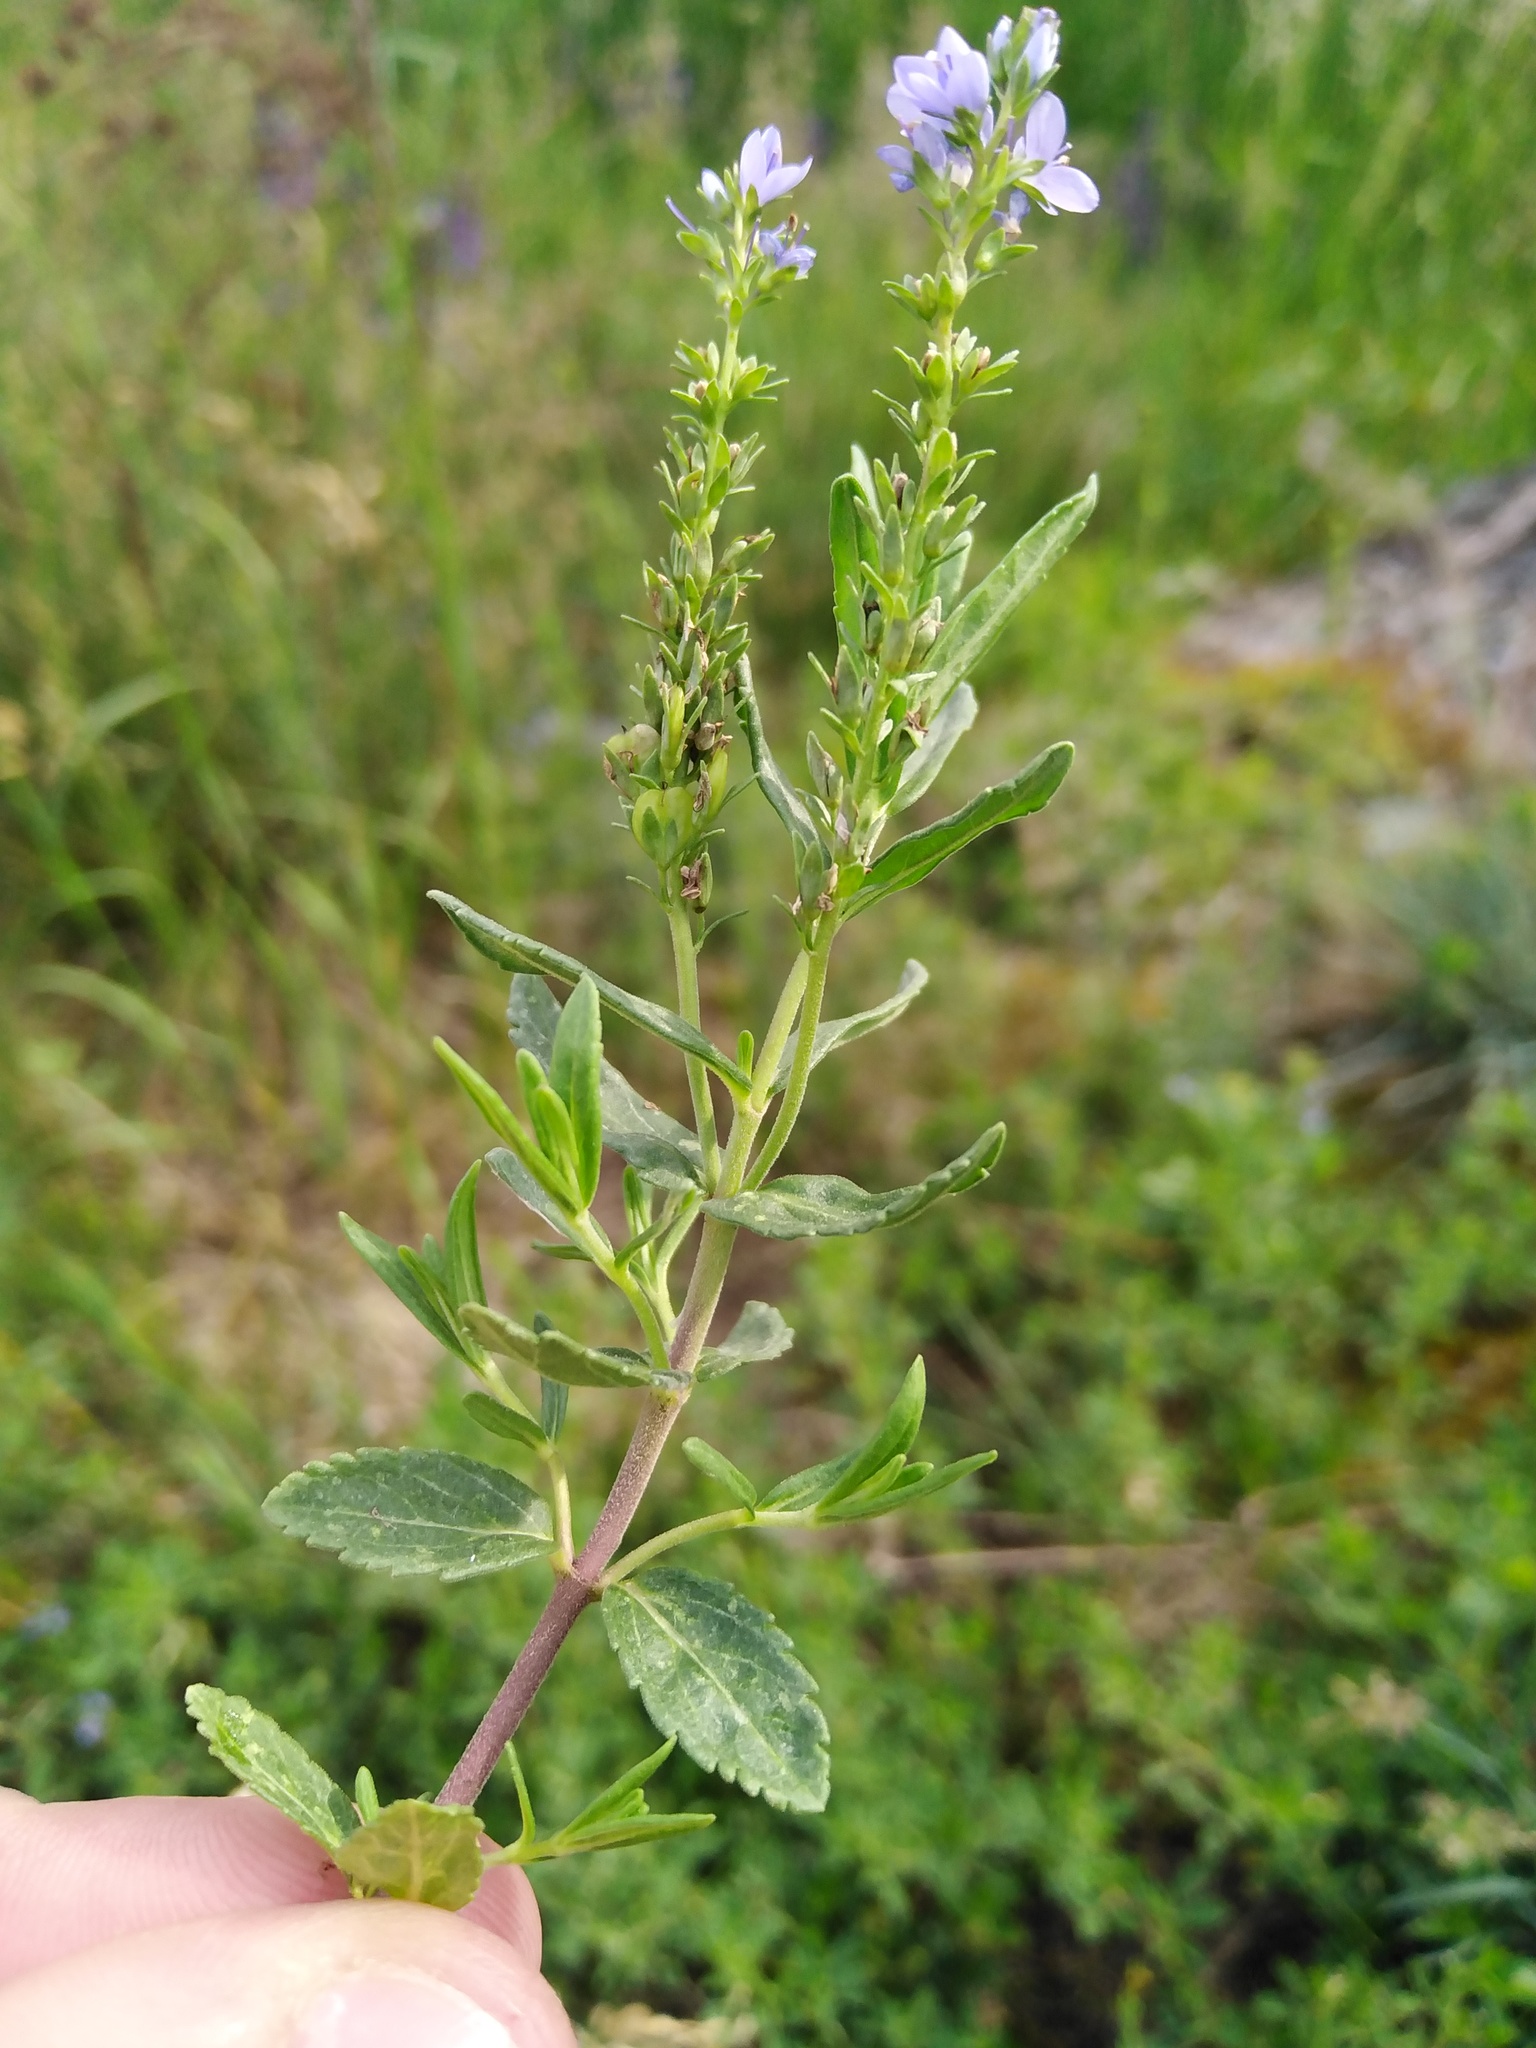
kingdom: Plantae
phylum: Tracheophyta
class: Magnoliopsida
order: Lamiales
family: Plantaginaceae
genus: Veronica
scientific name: Veronica prostrata
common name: Prostrate speedwell
